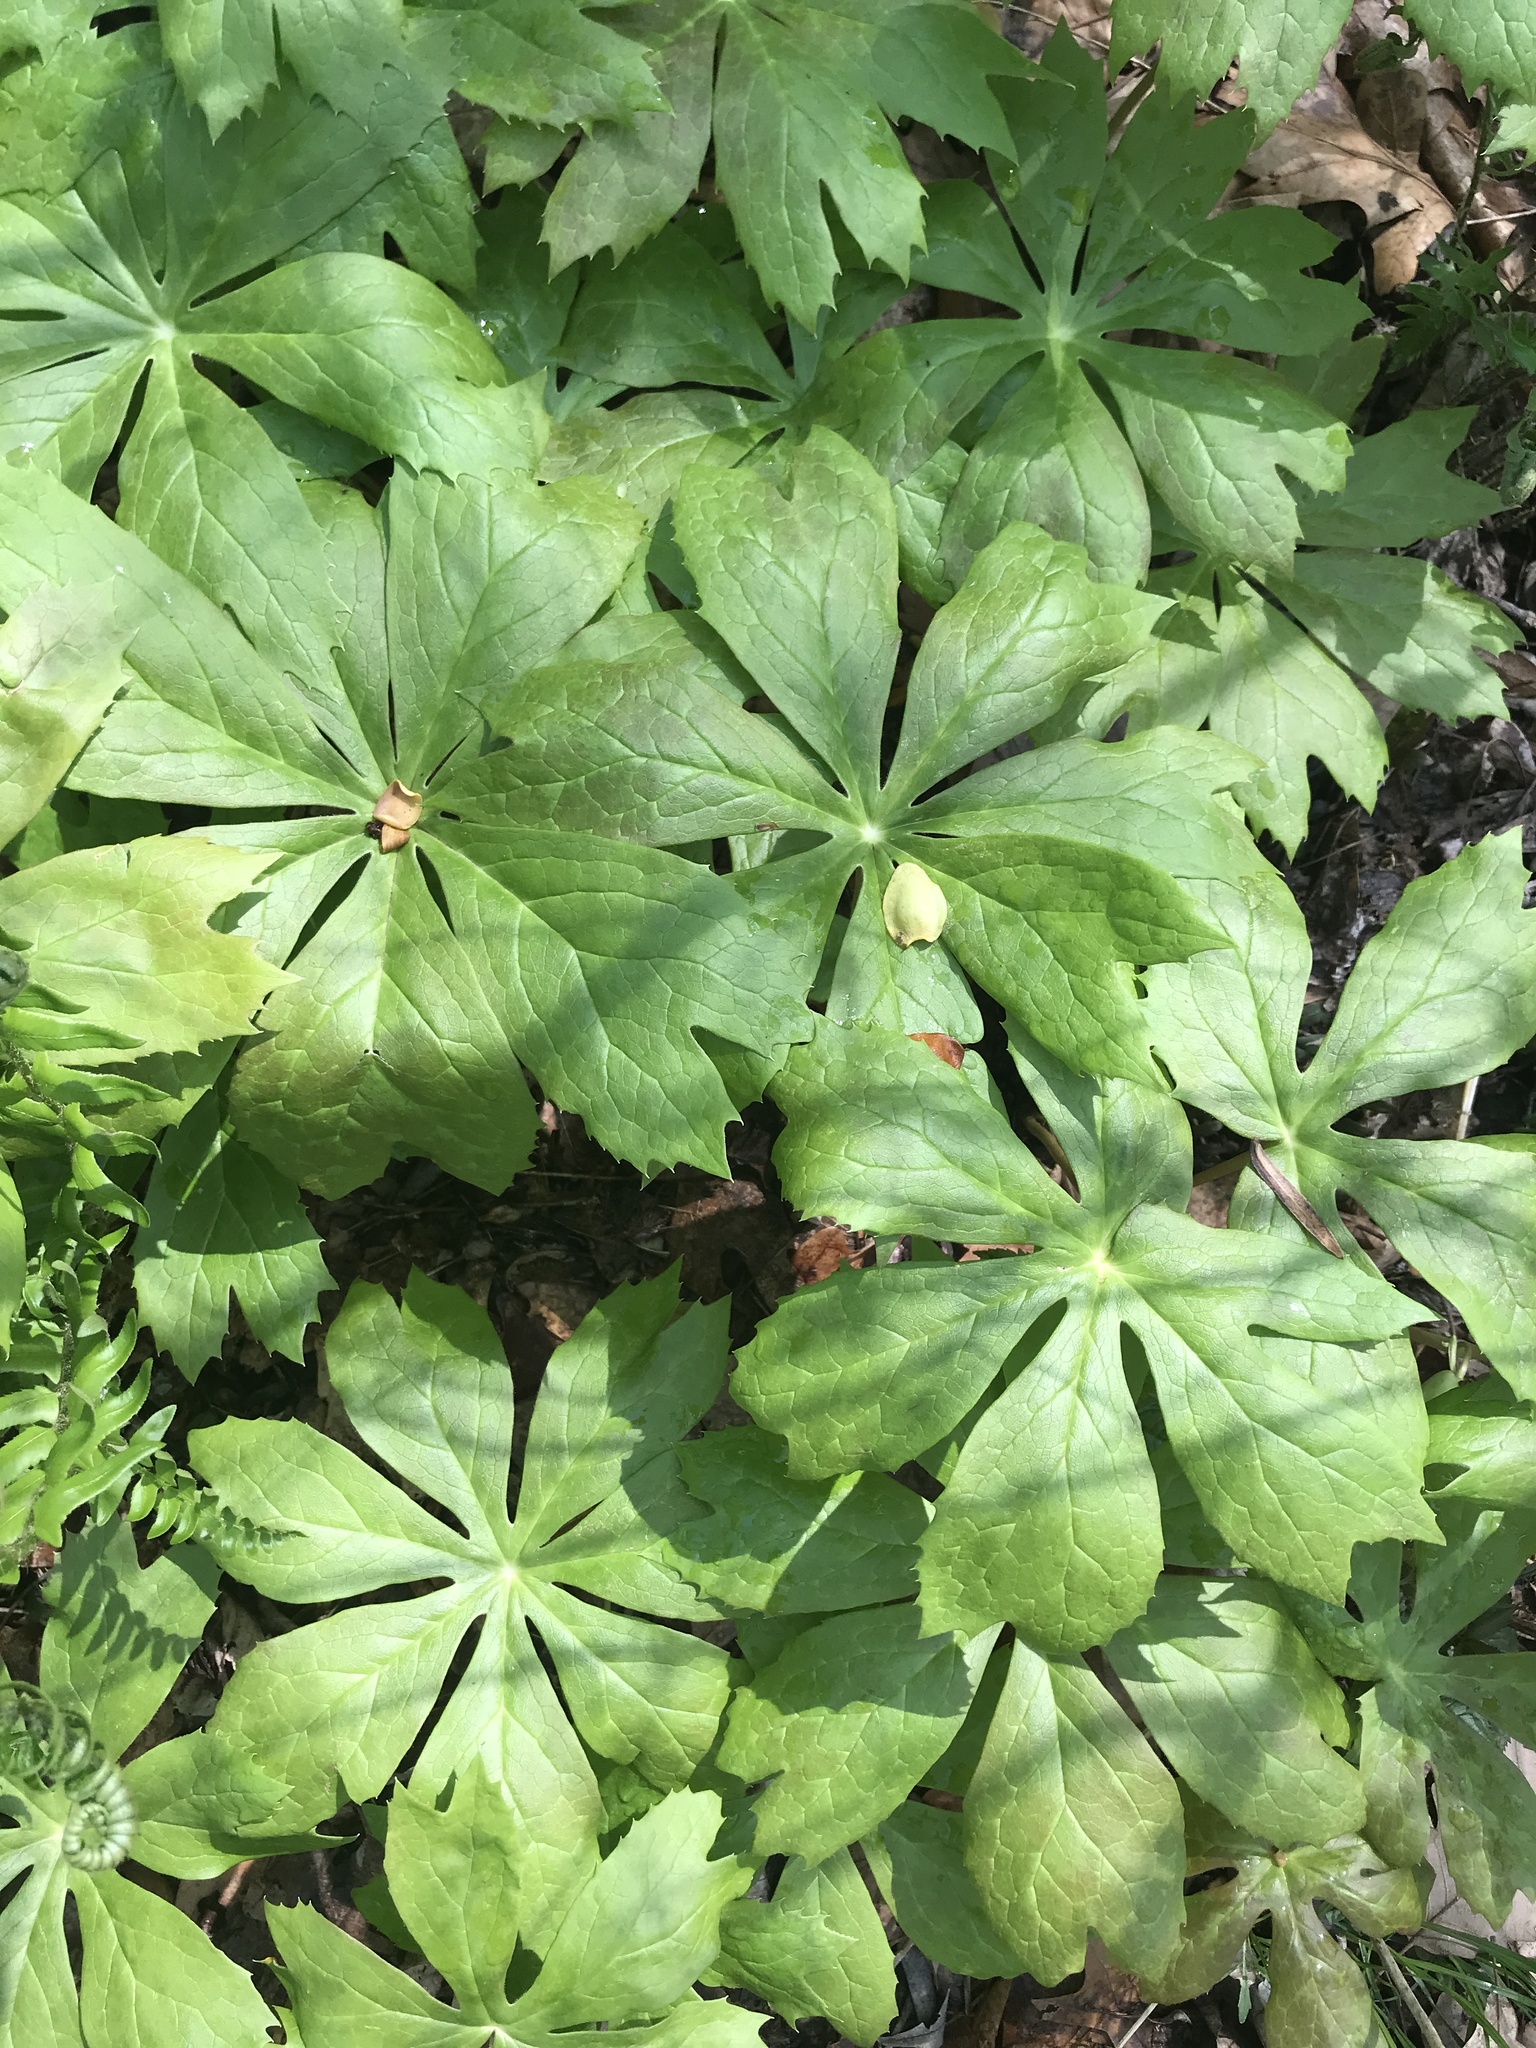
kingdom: Plantae
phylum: Tracheophyta
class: Magnoliopsida
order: Ranunculales
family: Berberidaceae
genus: Podophyllum
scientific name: Podophyllum peltatum
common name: Wild mandrake
